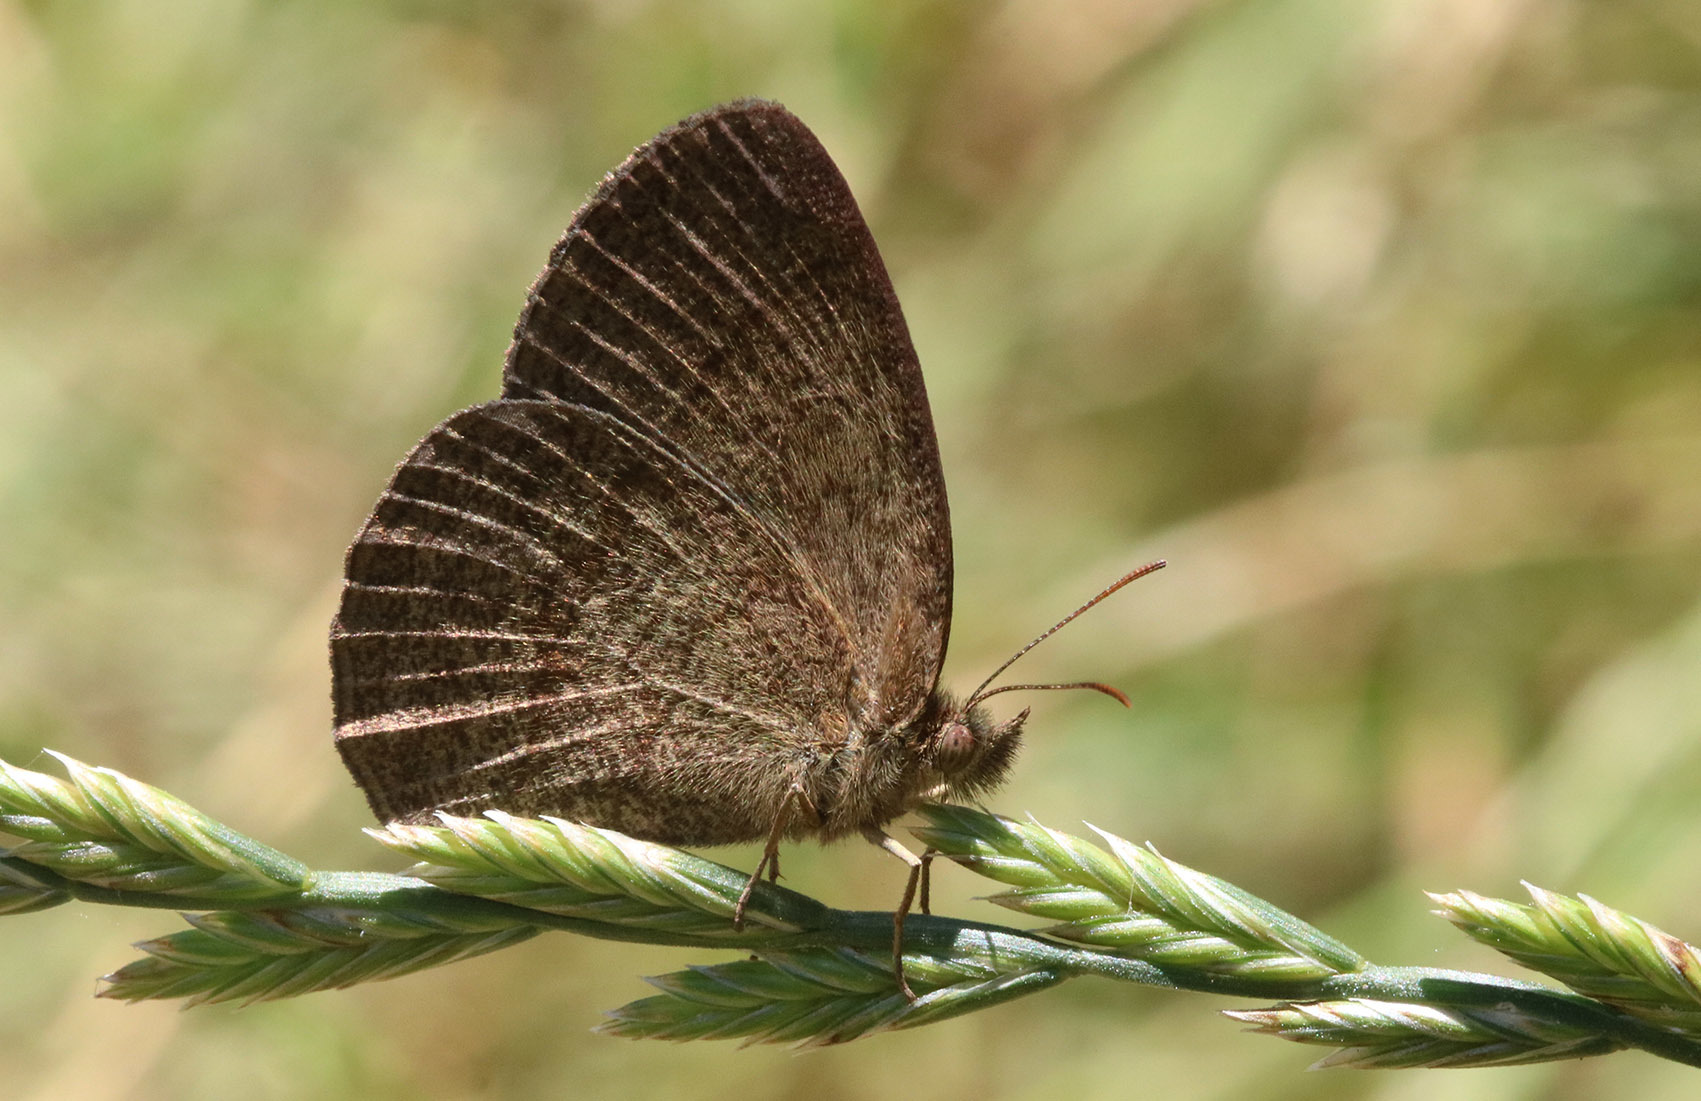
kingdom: Animalia
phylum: Arthropoda
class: Insecta
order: Lepidoptera
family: Nymphalidae
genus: Yphthimoides
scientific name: Yphthimoides celmis
